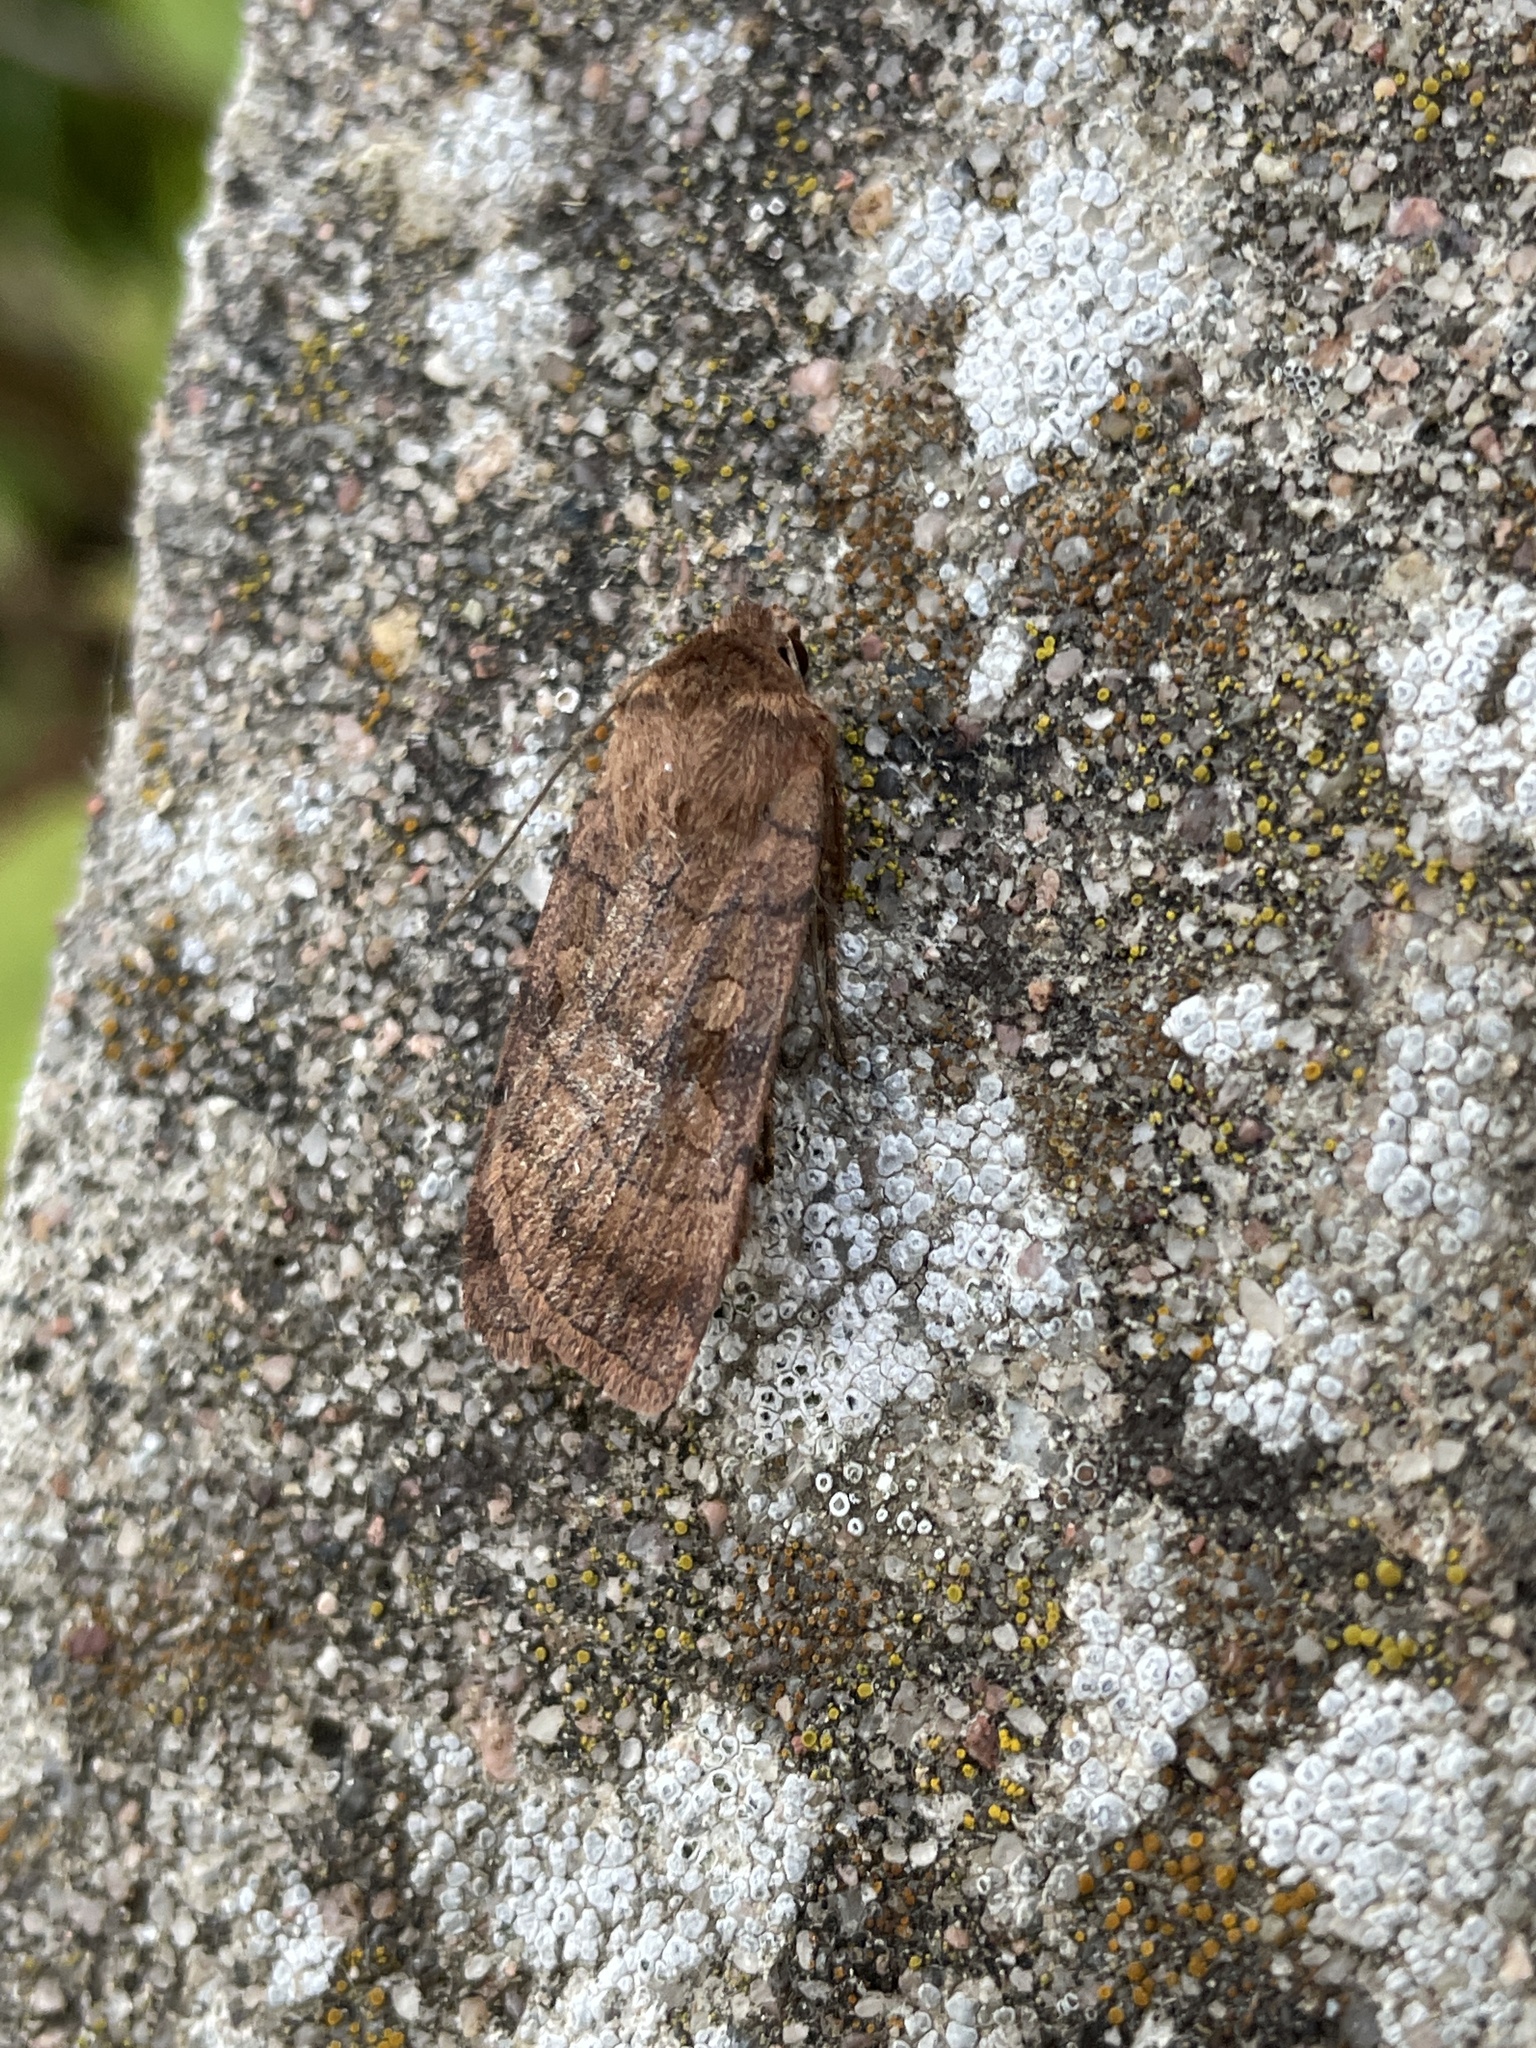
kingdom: Animalia
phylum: Arthropoda
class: Insecta
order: Lepidoptera
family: Noctuidae
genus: Xestia
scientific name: Xestia sexstrigata
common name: Six-striped rustic
